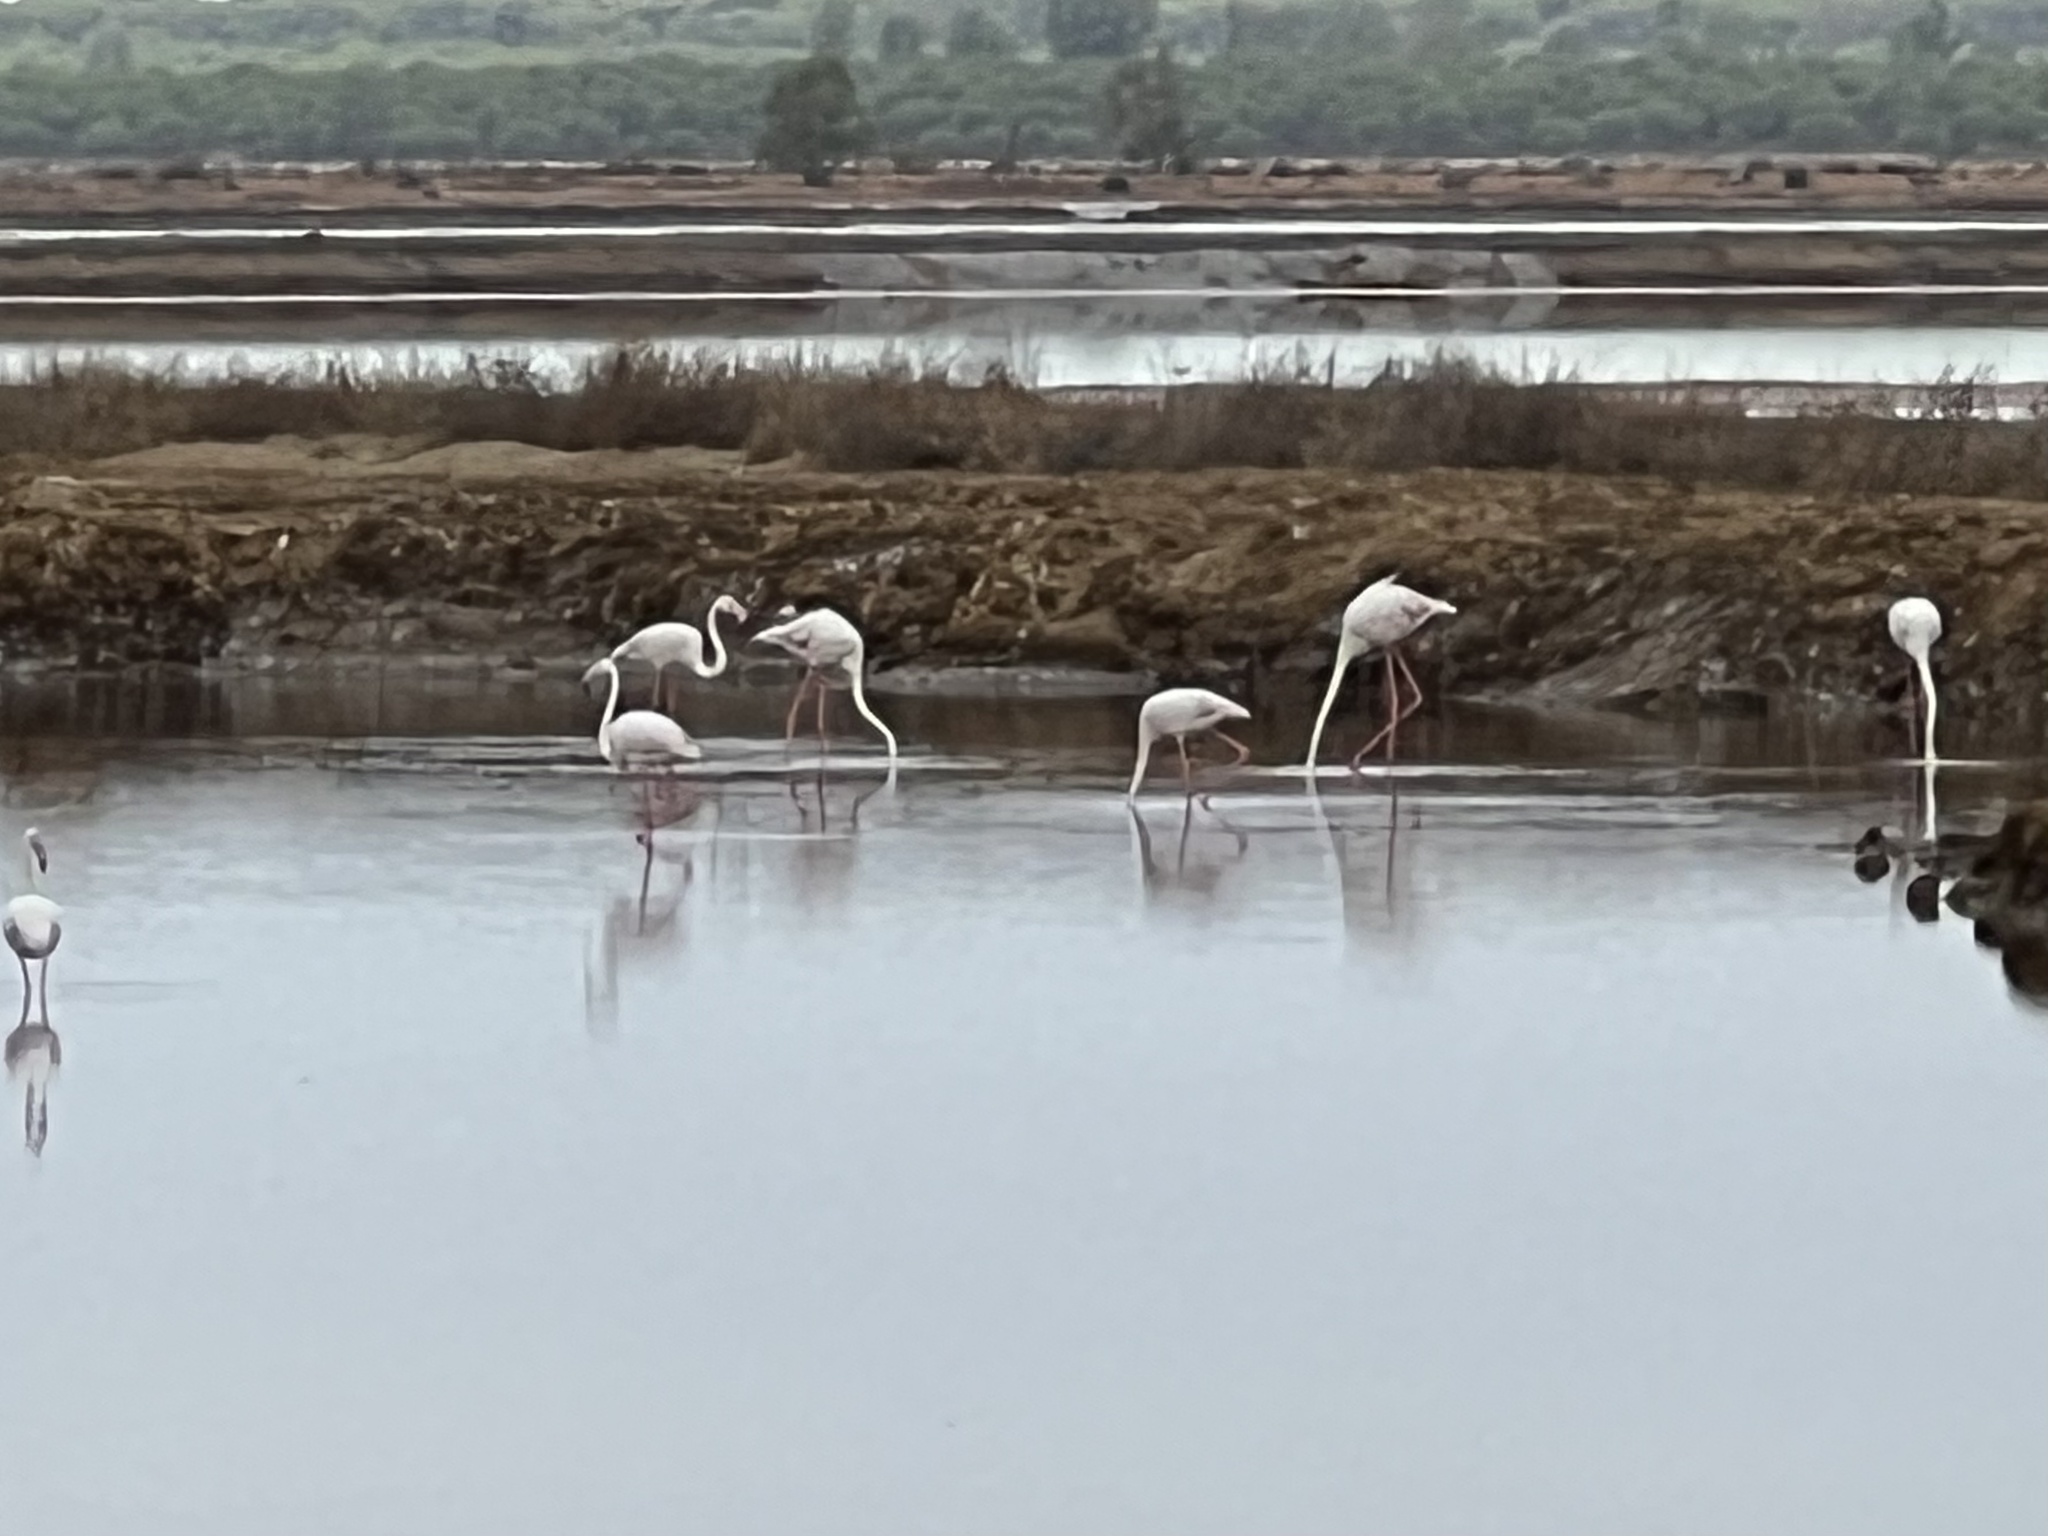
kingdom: Animalia
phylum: Chordata
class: Aves
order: Phoenicopteriformes
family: Phoenicopteridae
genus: Phoenicopterus
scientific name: Phoenicopterus roseus
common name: Greater flamingo
